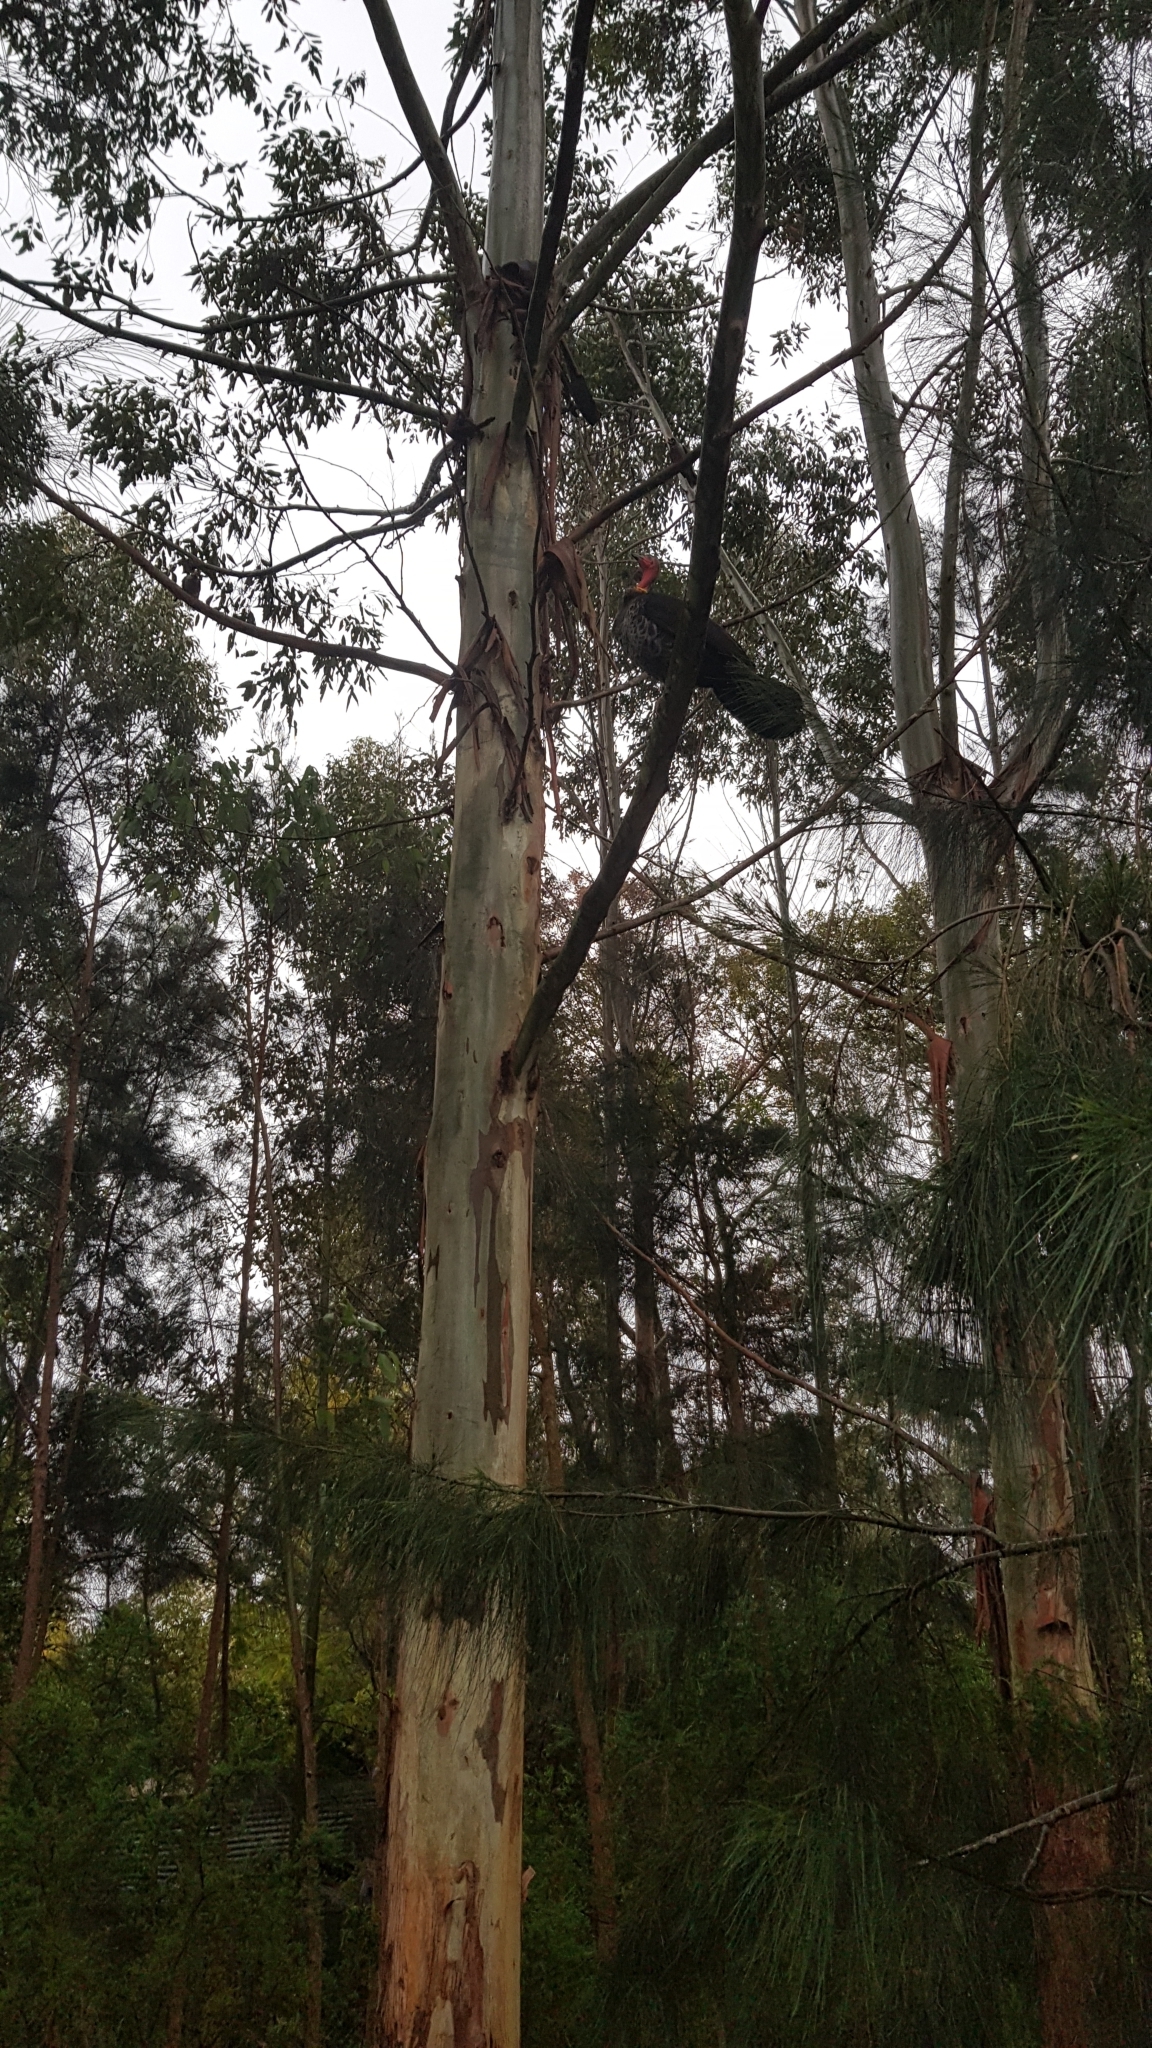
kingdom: Animalia
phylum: Chordata
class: Aves
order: Galliformes
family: Megapodiidae
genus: Alectura
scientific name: Alectura lathami
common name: Australian brushturkey
